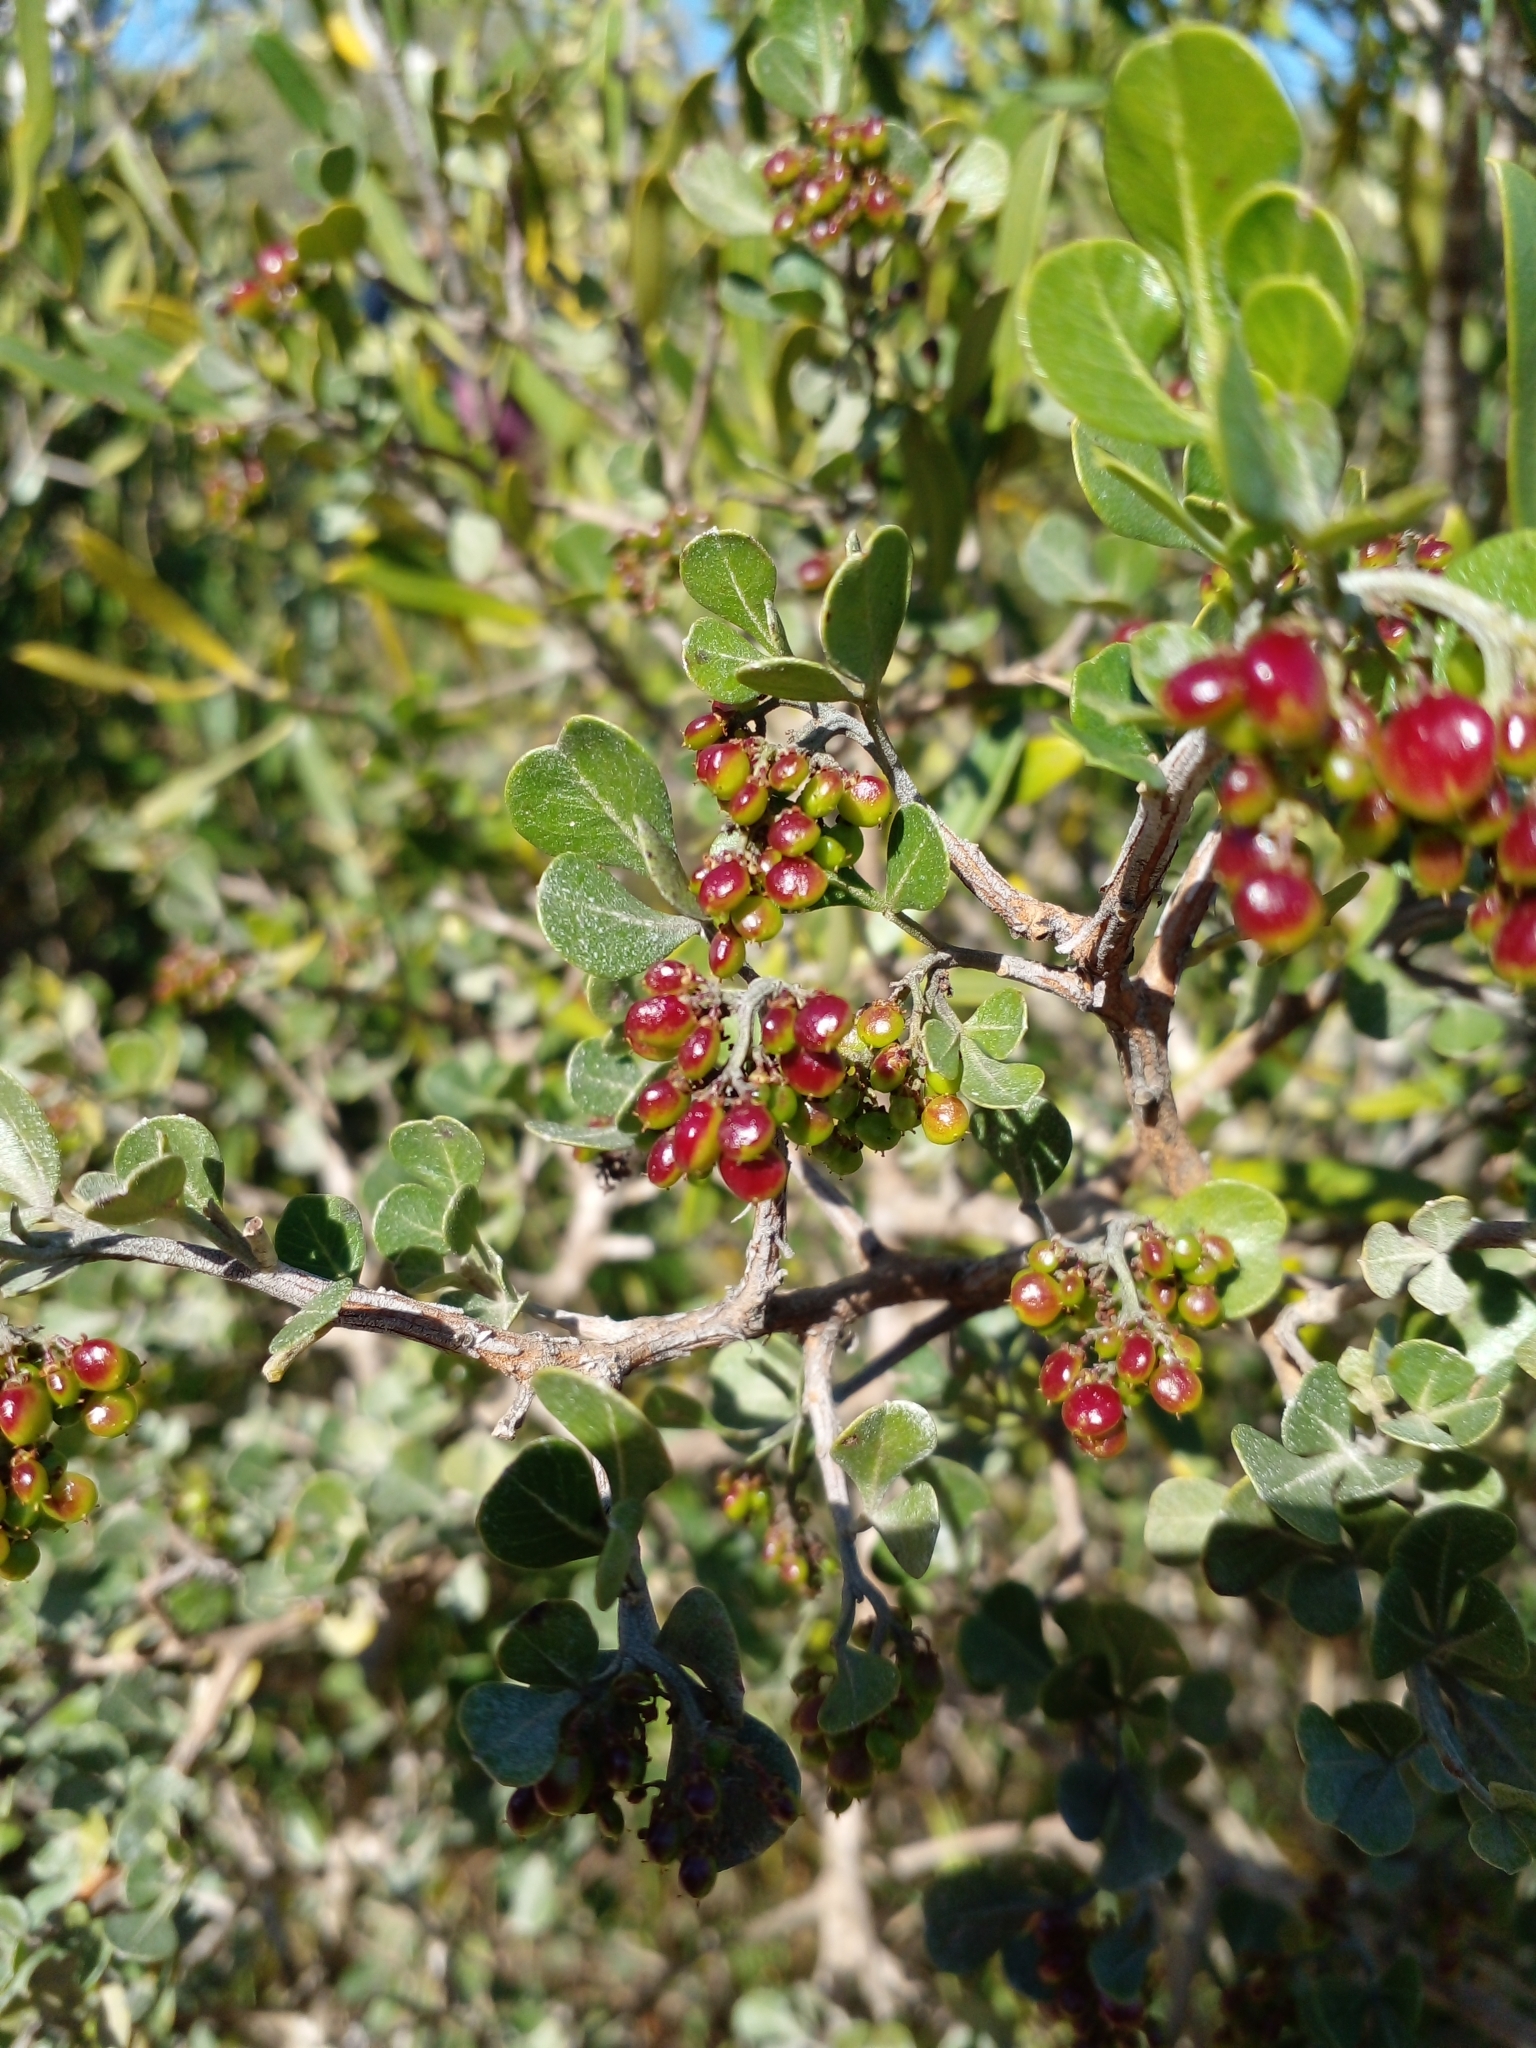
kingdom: Plantae
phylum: Tracheophyta
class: Magnoliopsida
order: Sapindales
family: Anacardiaceae
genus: Searsia
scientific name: Searsia glauca
